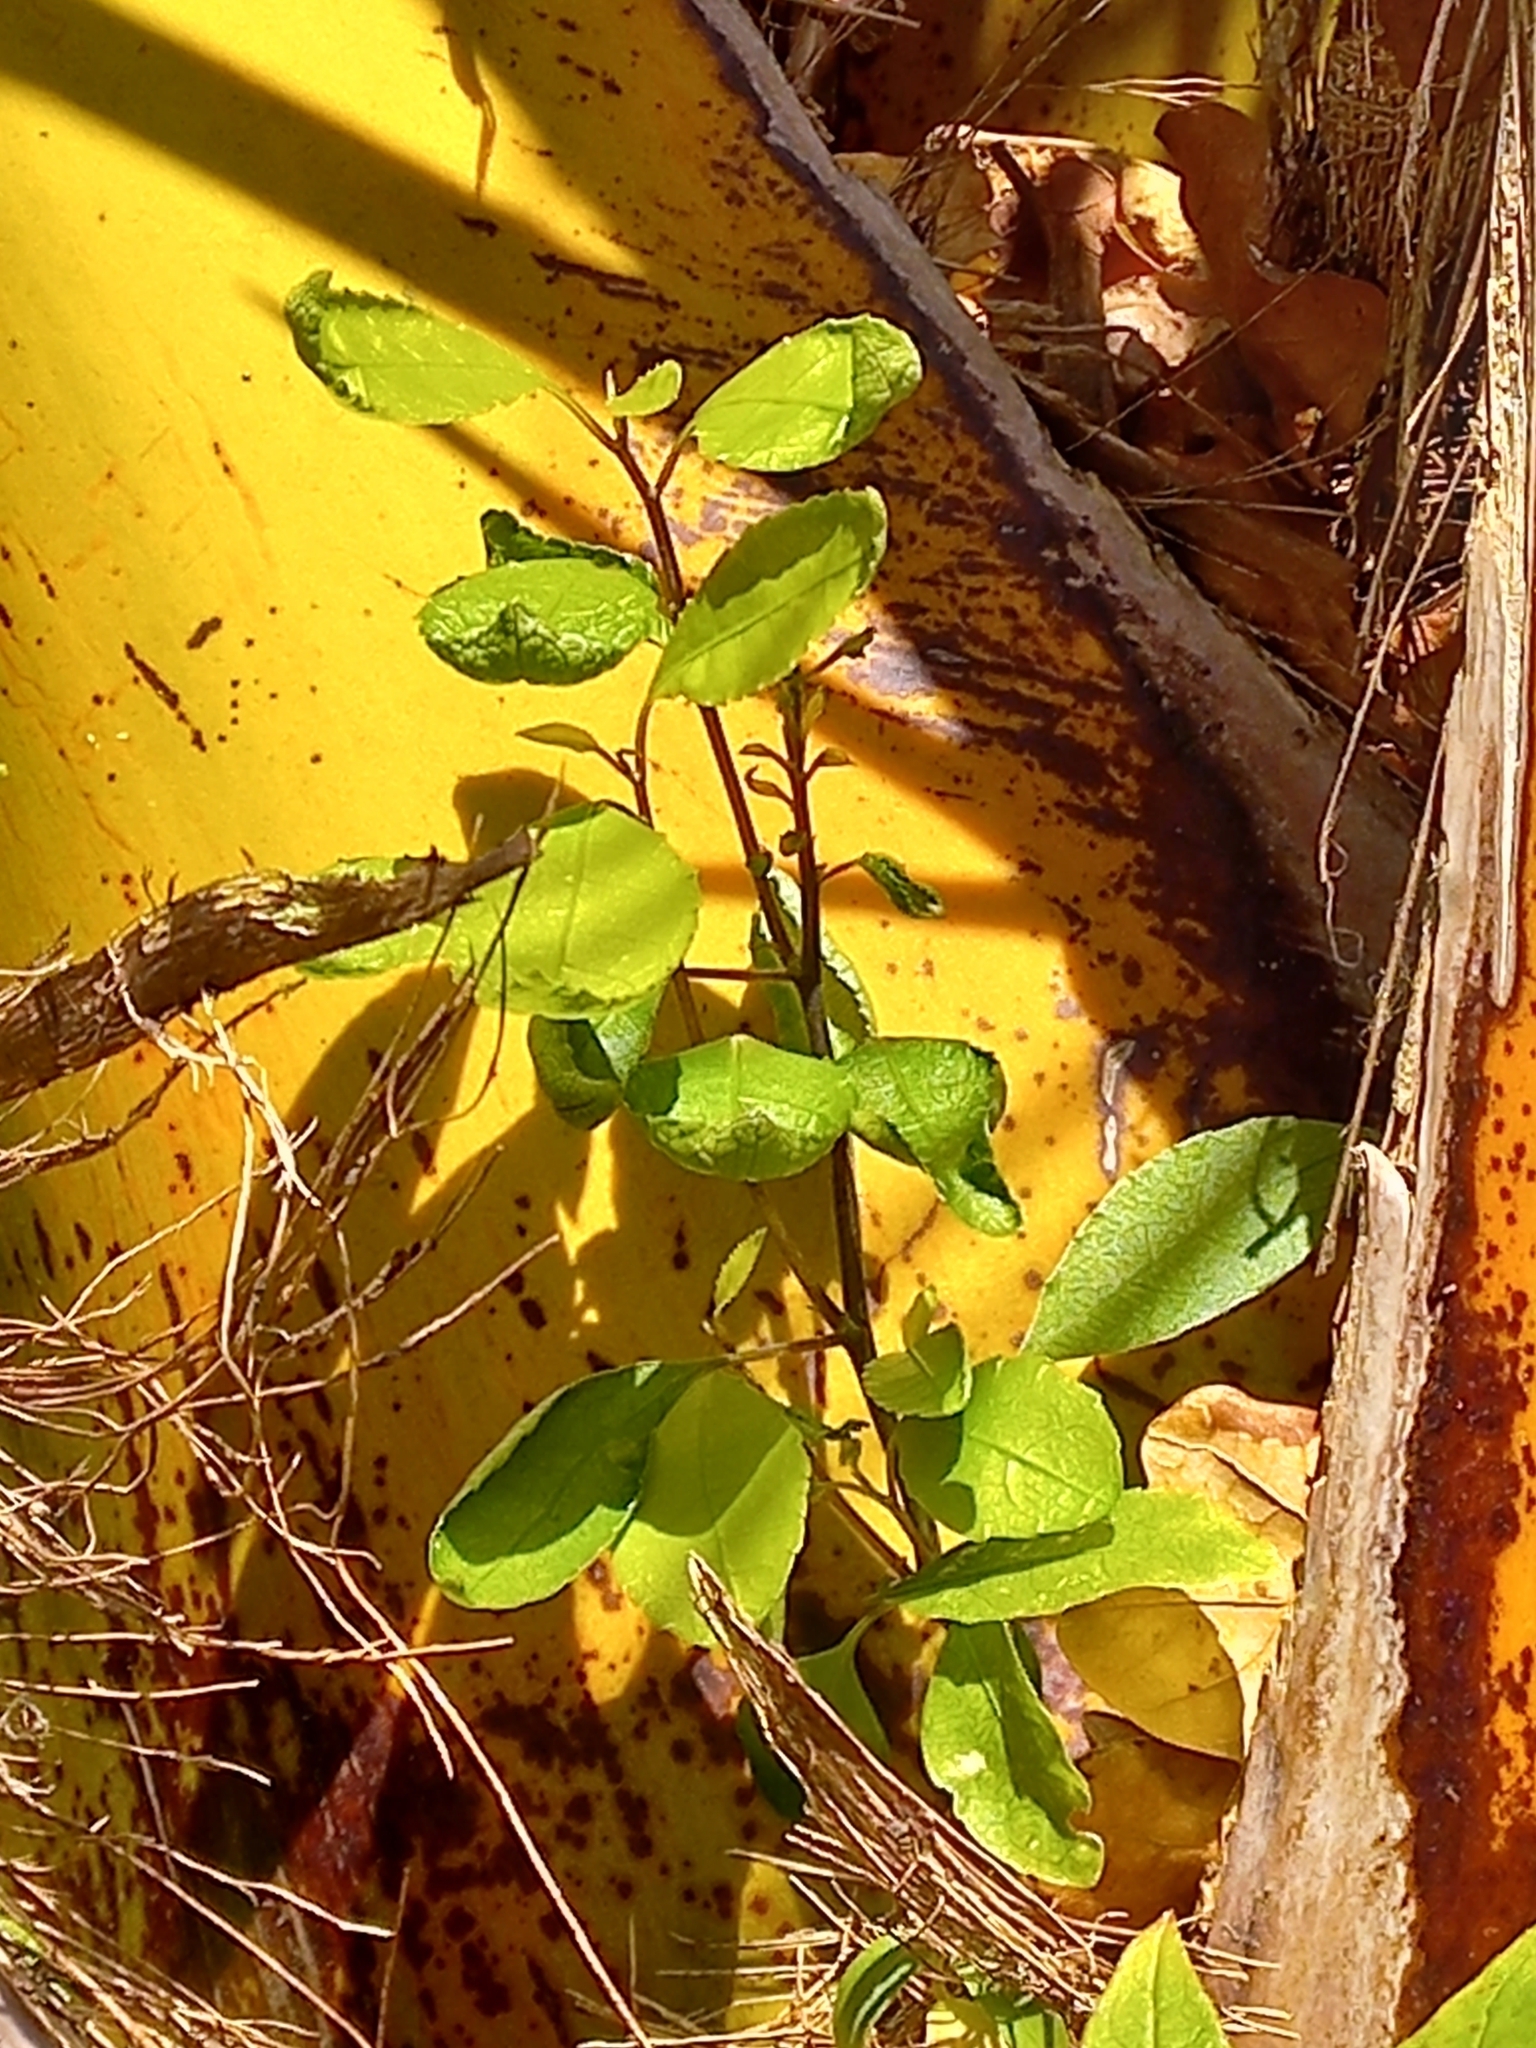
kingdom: Plantae
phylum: Tracheophyta
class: Magnoliopsida
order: Malpighiales
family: Violaceae
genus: Melicytus
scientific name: Melicytus ramiflorus
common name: Mahoe
